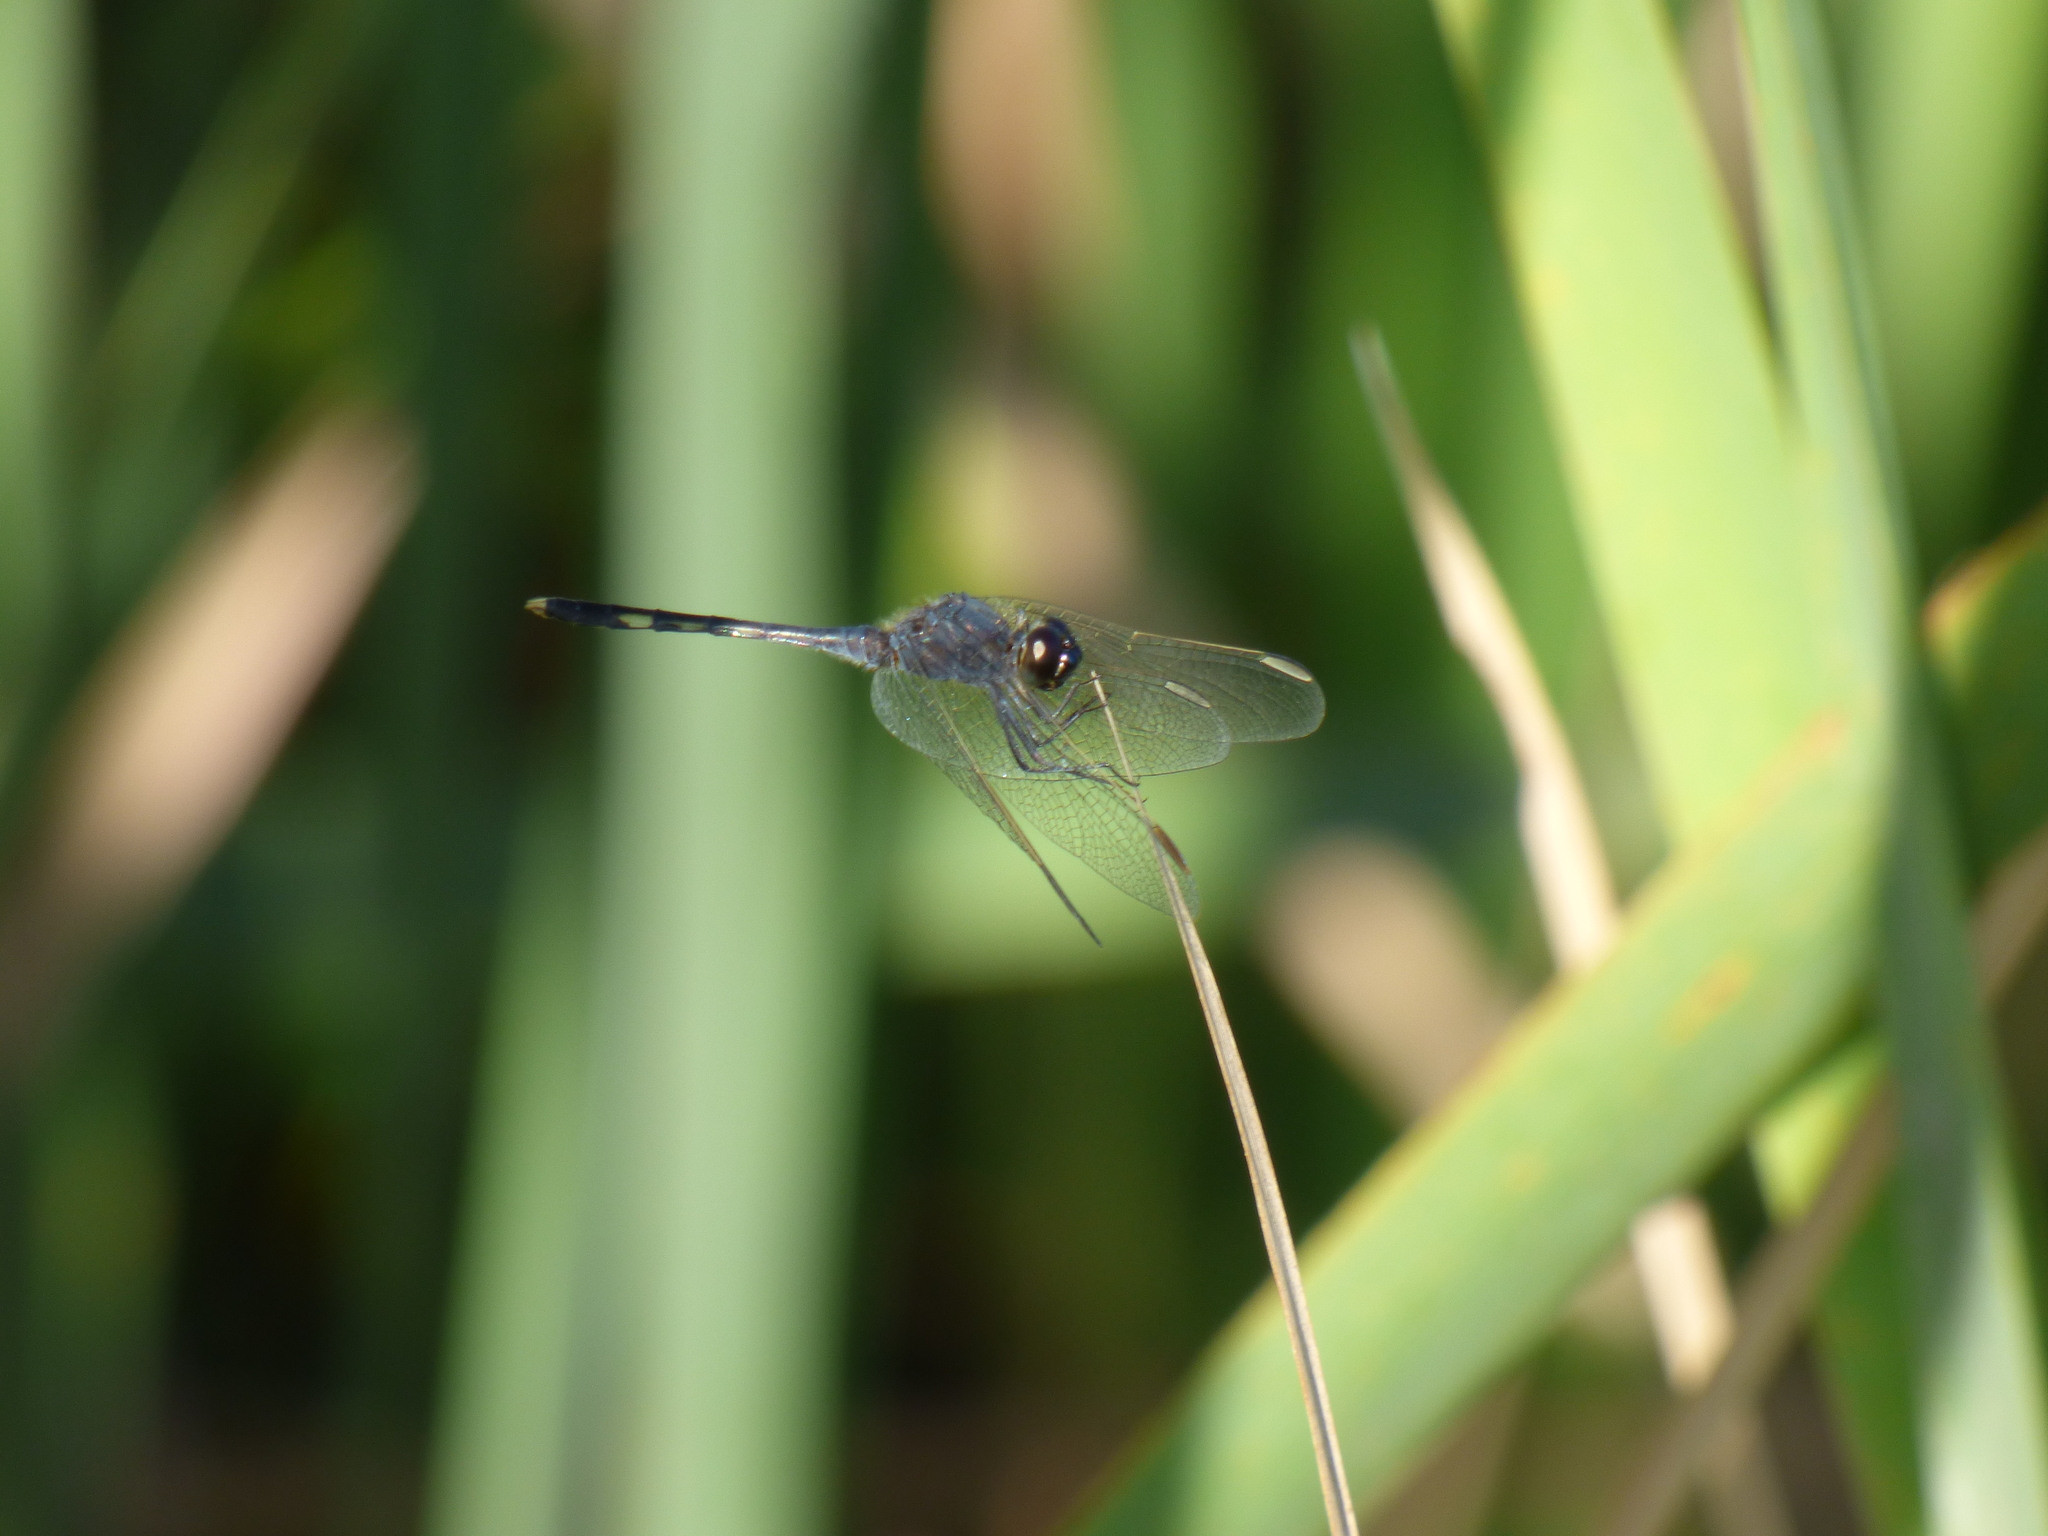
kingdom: Animalia
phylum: Arthropoda
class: Insecta
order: Odonata
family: Libellulidae
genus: Erythrodiplax
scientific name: Erythrodiplax nigricans
